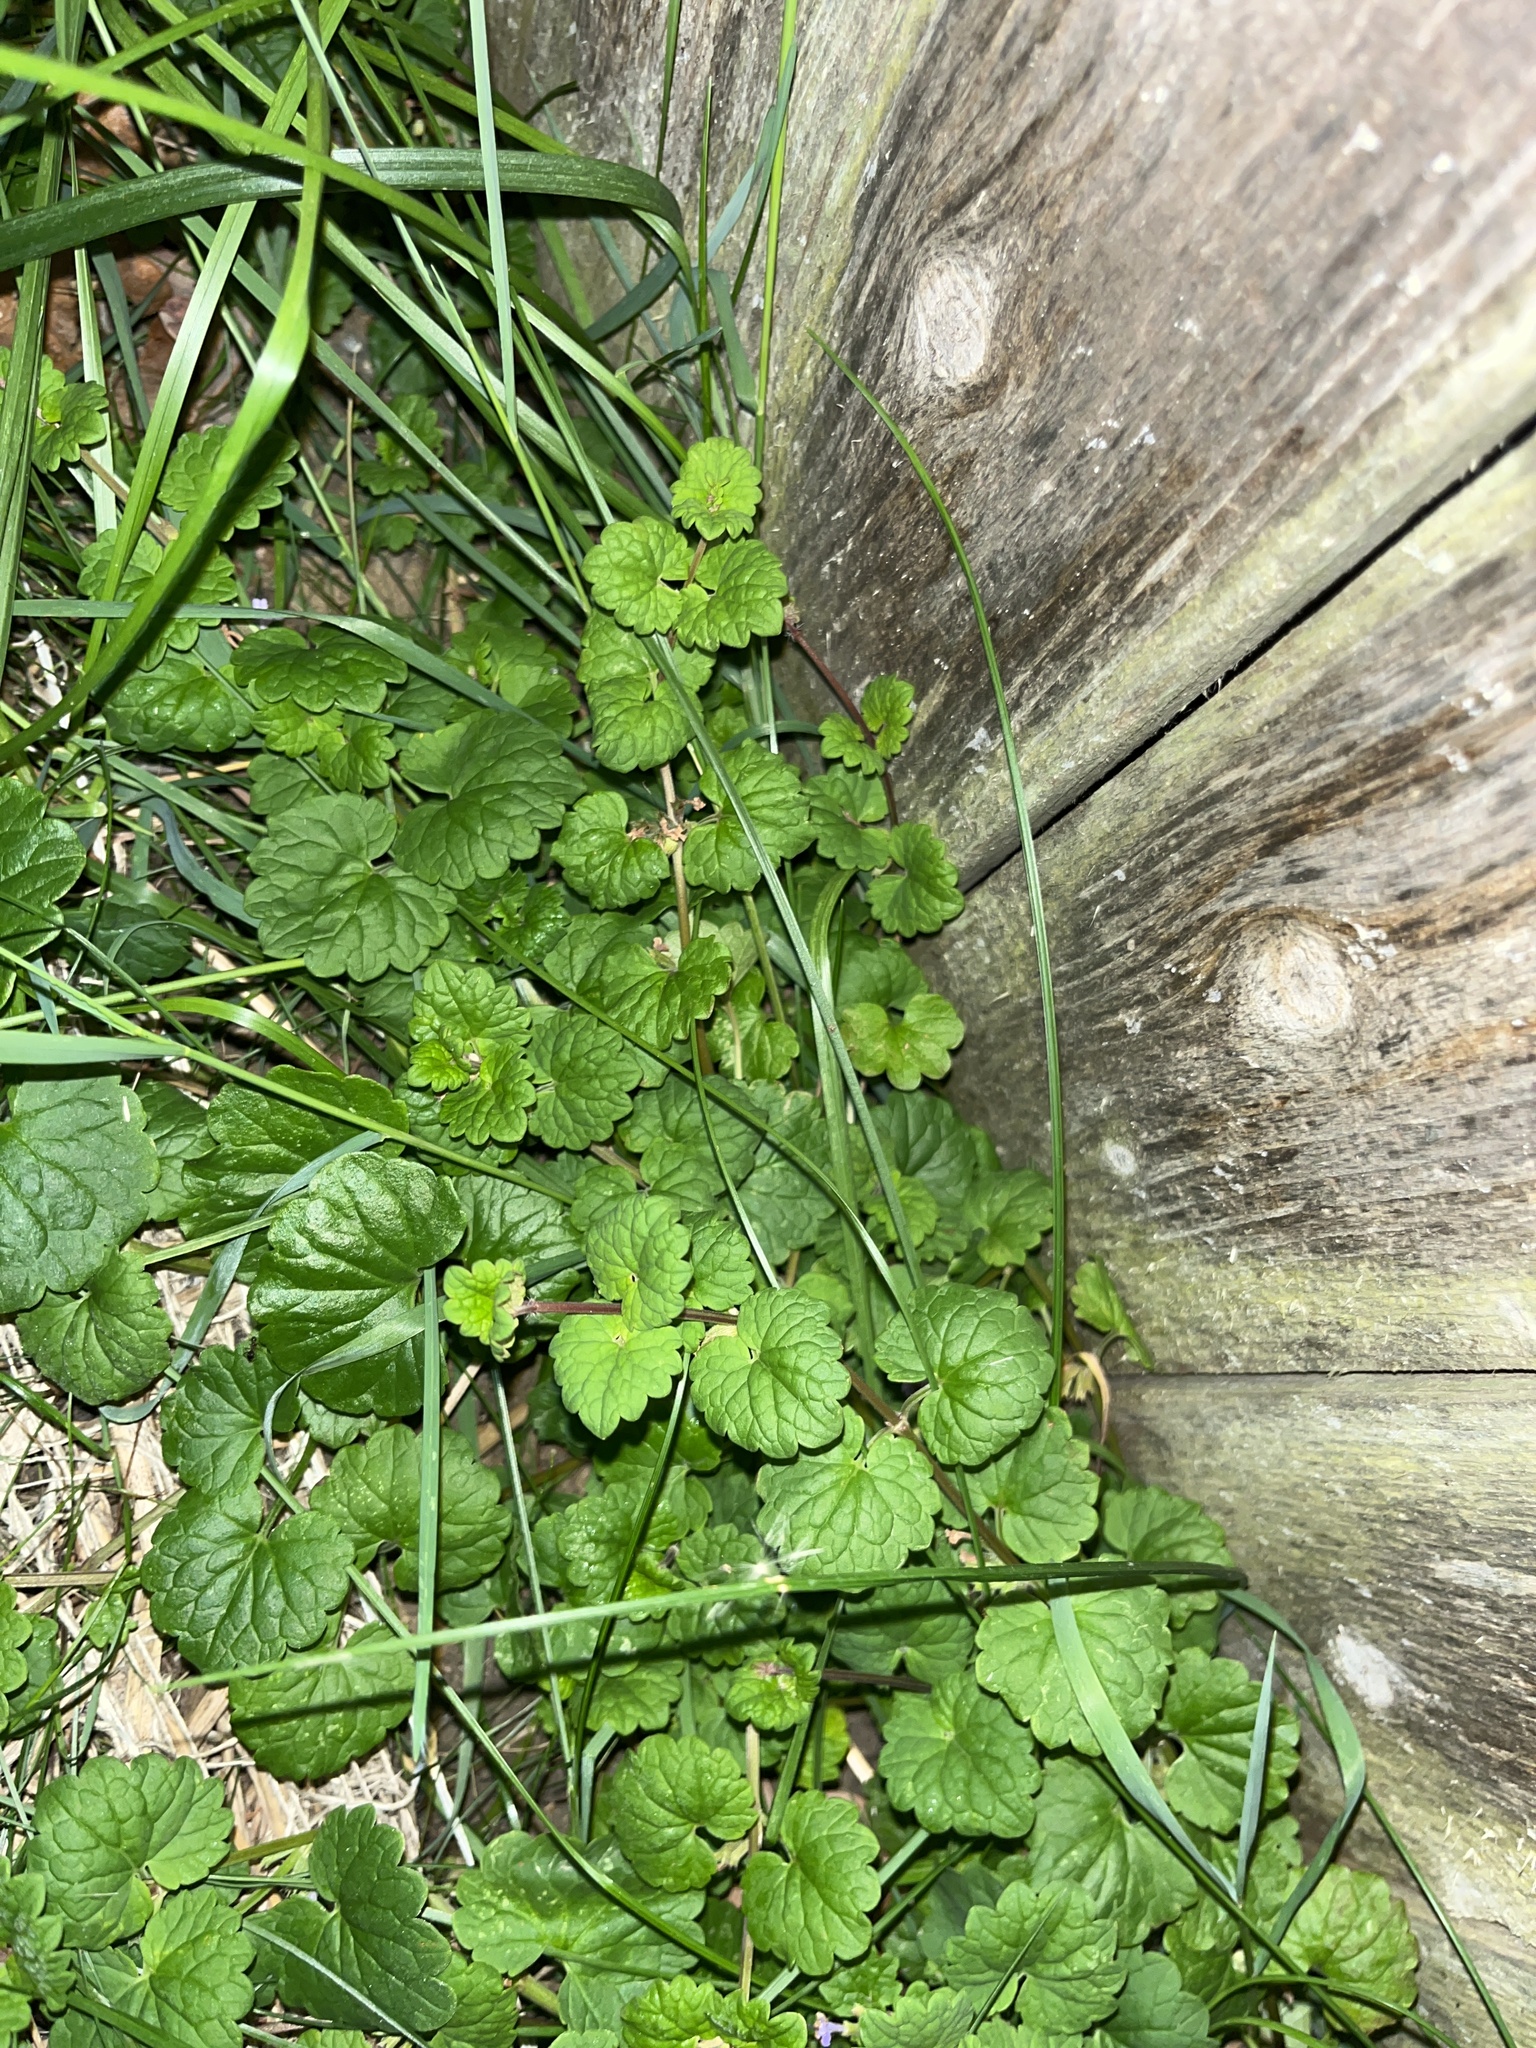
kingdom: Plantae
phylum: Tracheophyta
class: Magnoliopsida
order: Lamiales
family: Lamiaceae
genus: Glechoma
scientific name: Glechoma hederacea
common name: Ground ivy
